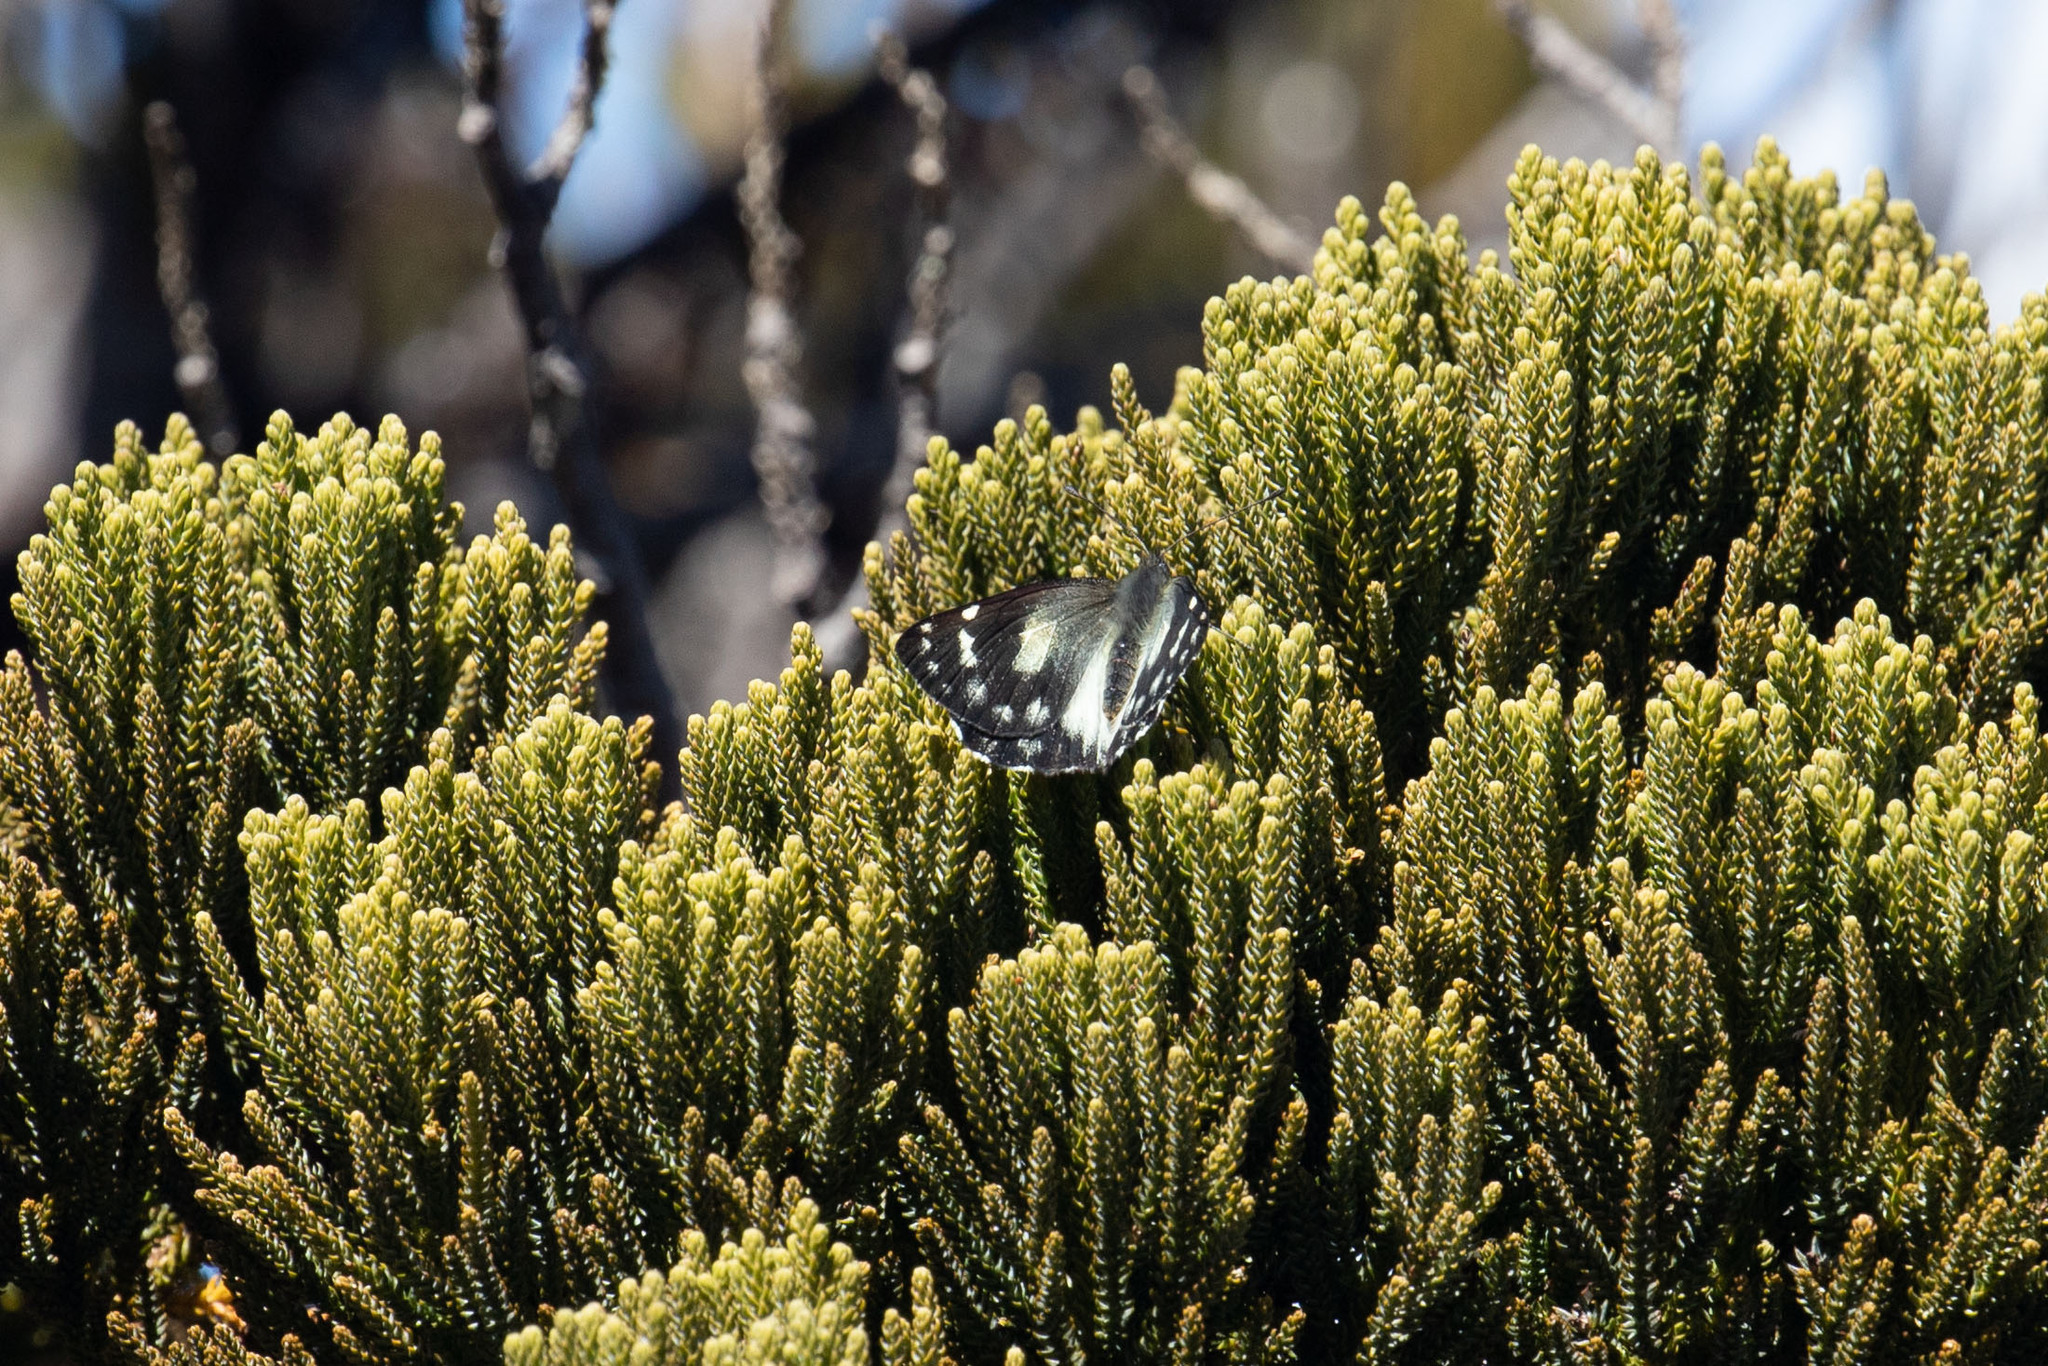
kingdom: Animalia
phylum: Arthropoda
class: Insecta
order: Lepidoptera
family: Pieridae
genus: Delias
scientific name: Delias leucobalia
